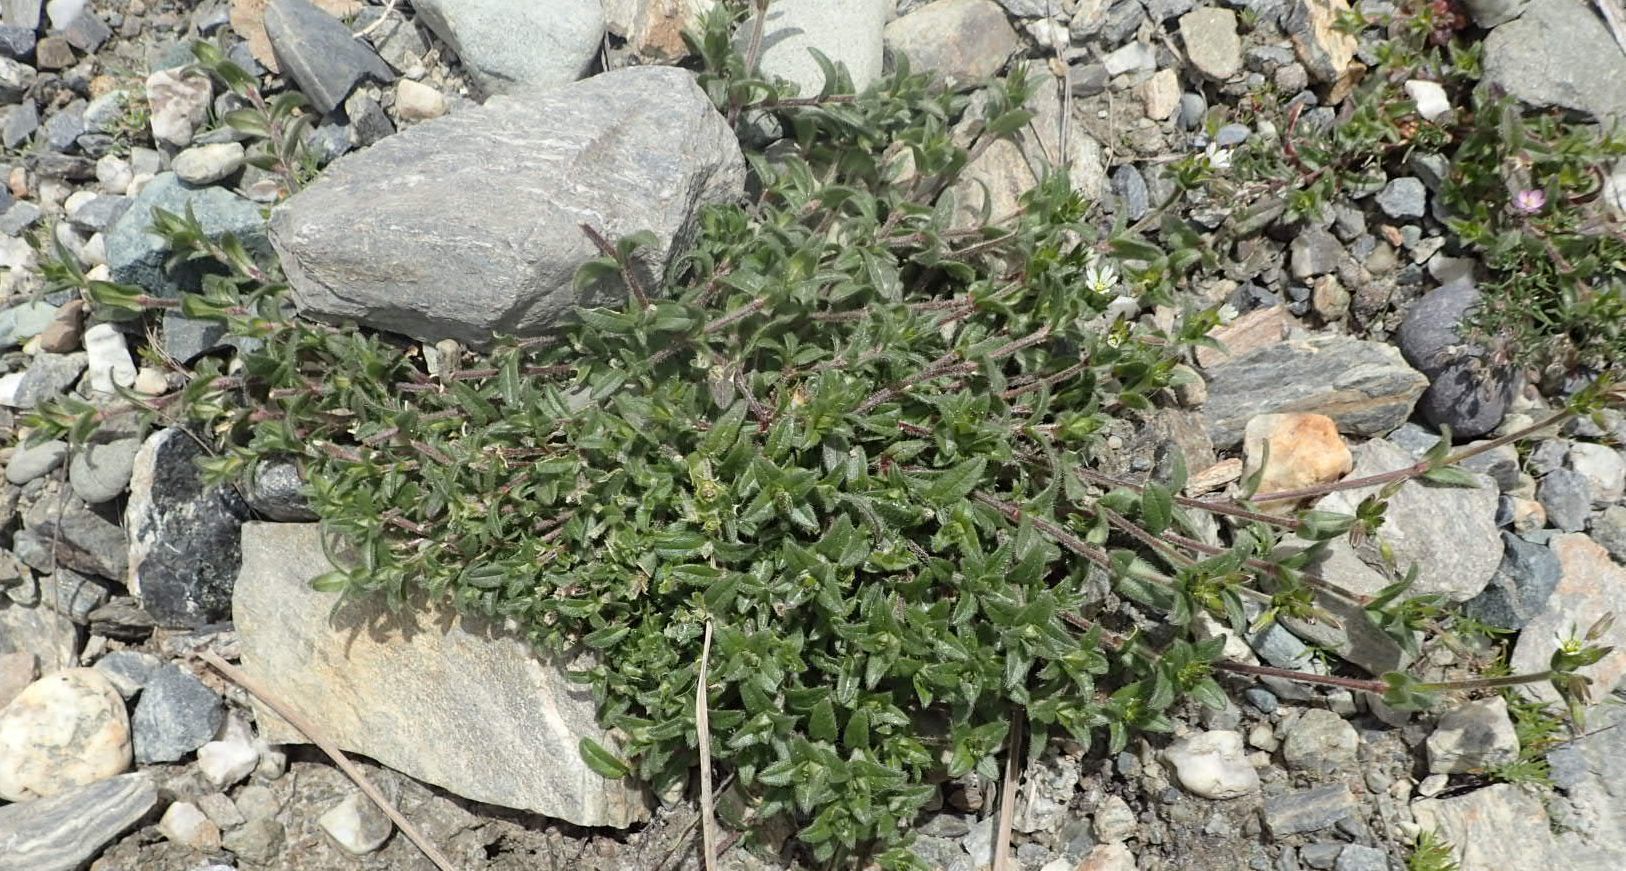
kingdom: Plantae
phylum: Tracheophyta
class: Magnoliopsida
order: Caryophyllales
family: Caryophyllaceae
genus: Cerastium
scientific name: Cerastium fontanum
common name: Common mouse-ear
